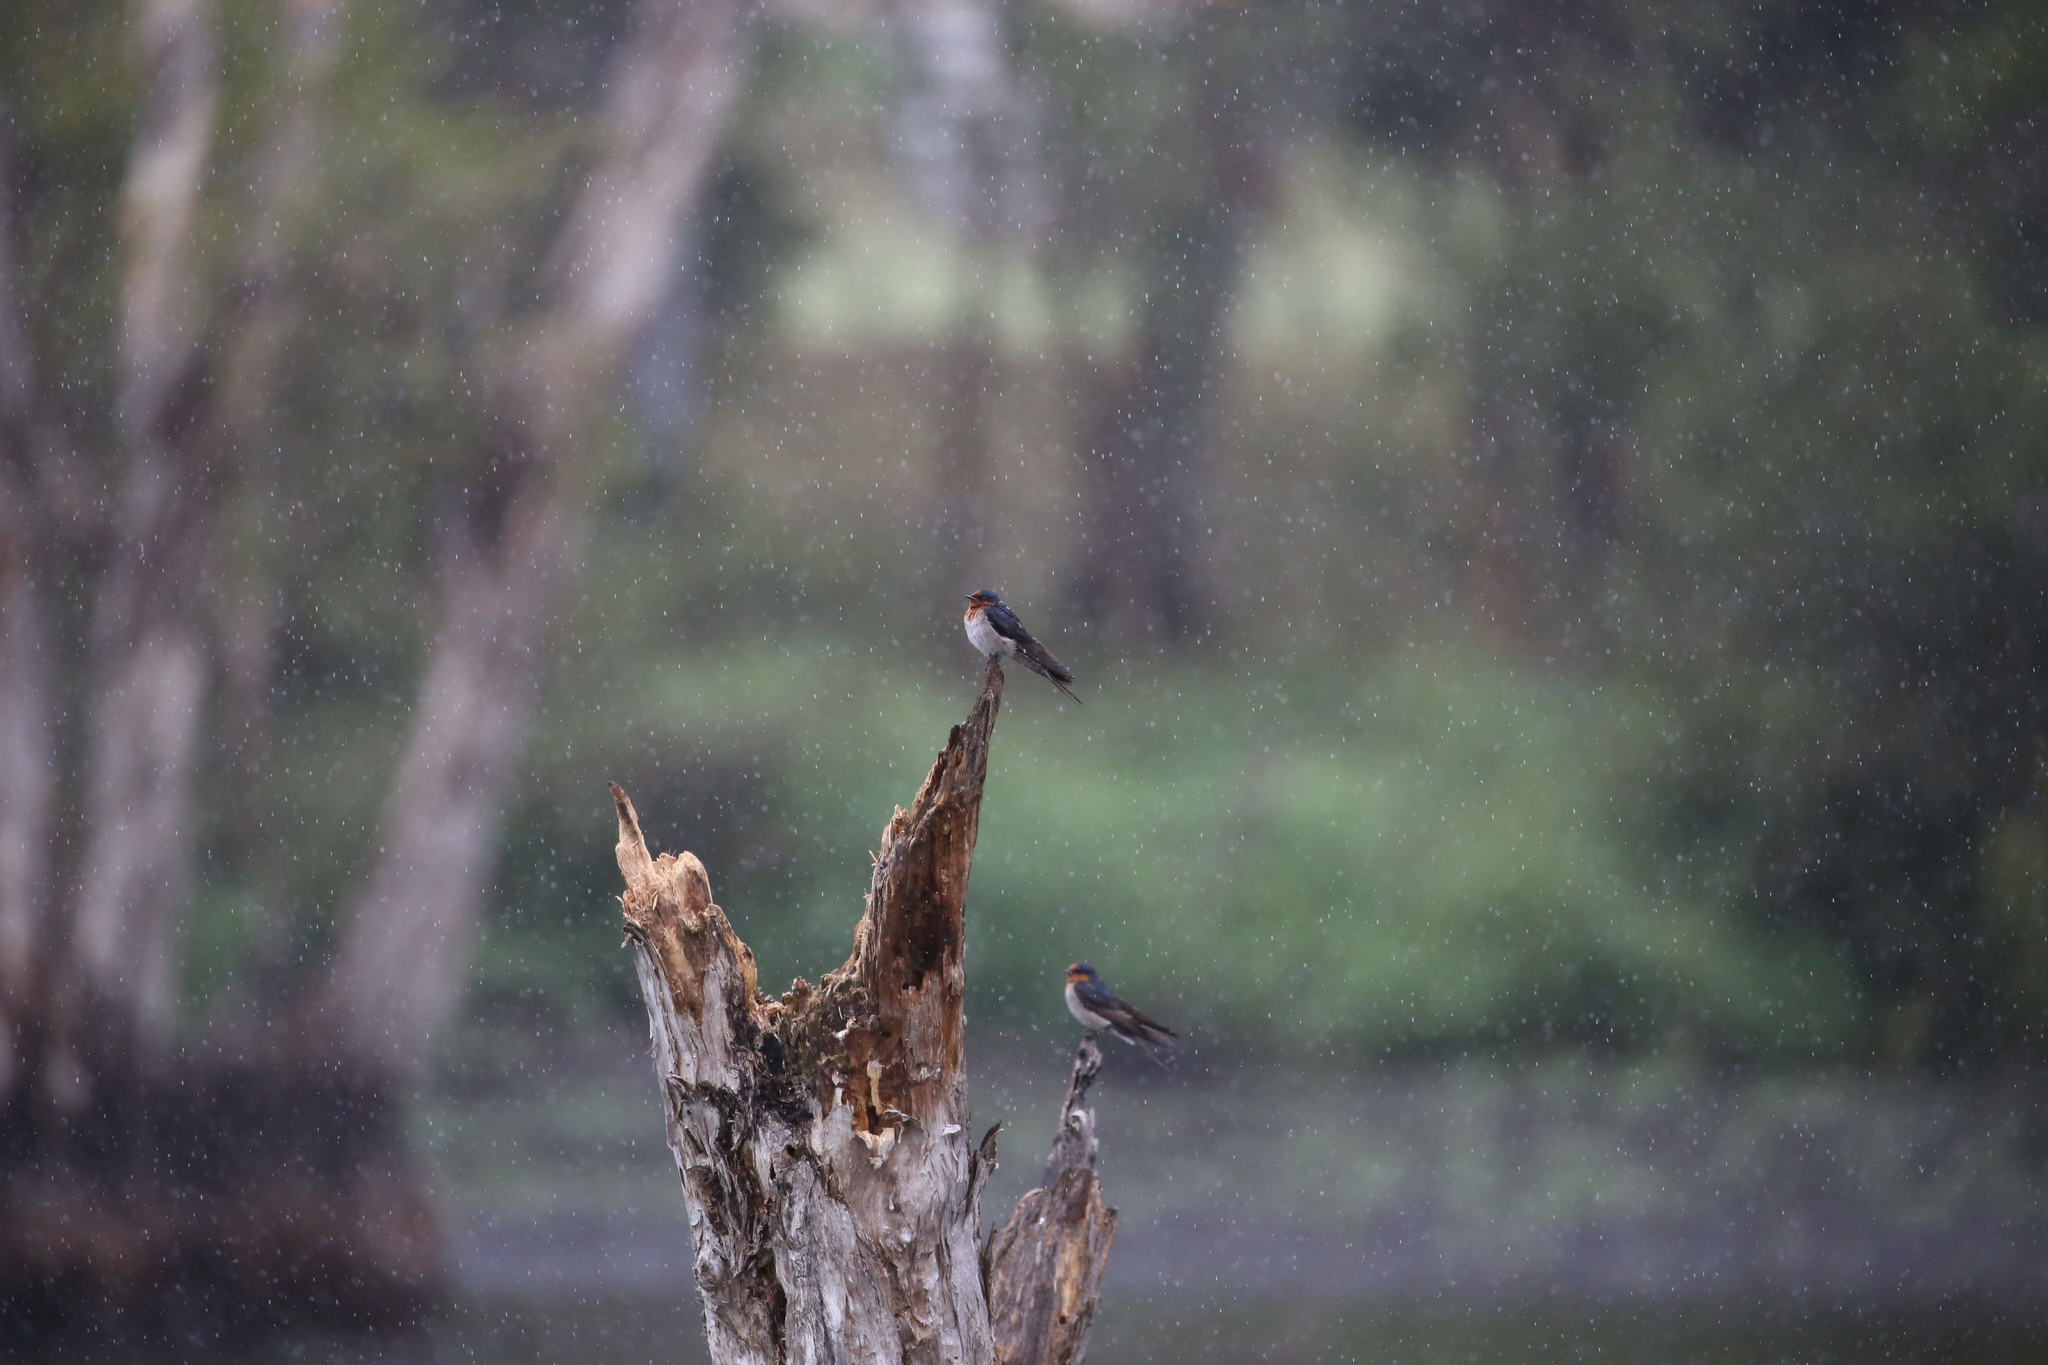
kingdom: Animalia
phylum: Chordata
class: Aves
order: Passeriformes
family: Hirundinidae
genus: Hirundo
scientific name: Hirundo neoxena
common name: Welcome swallow
